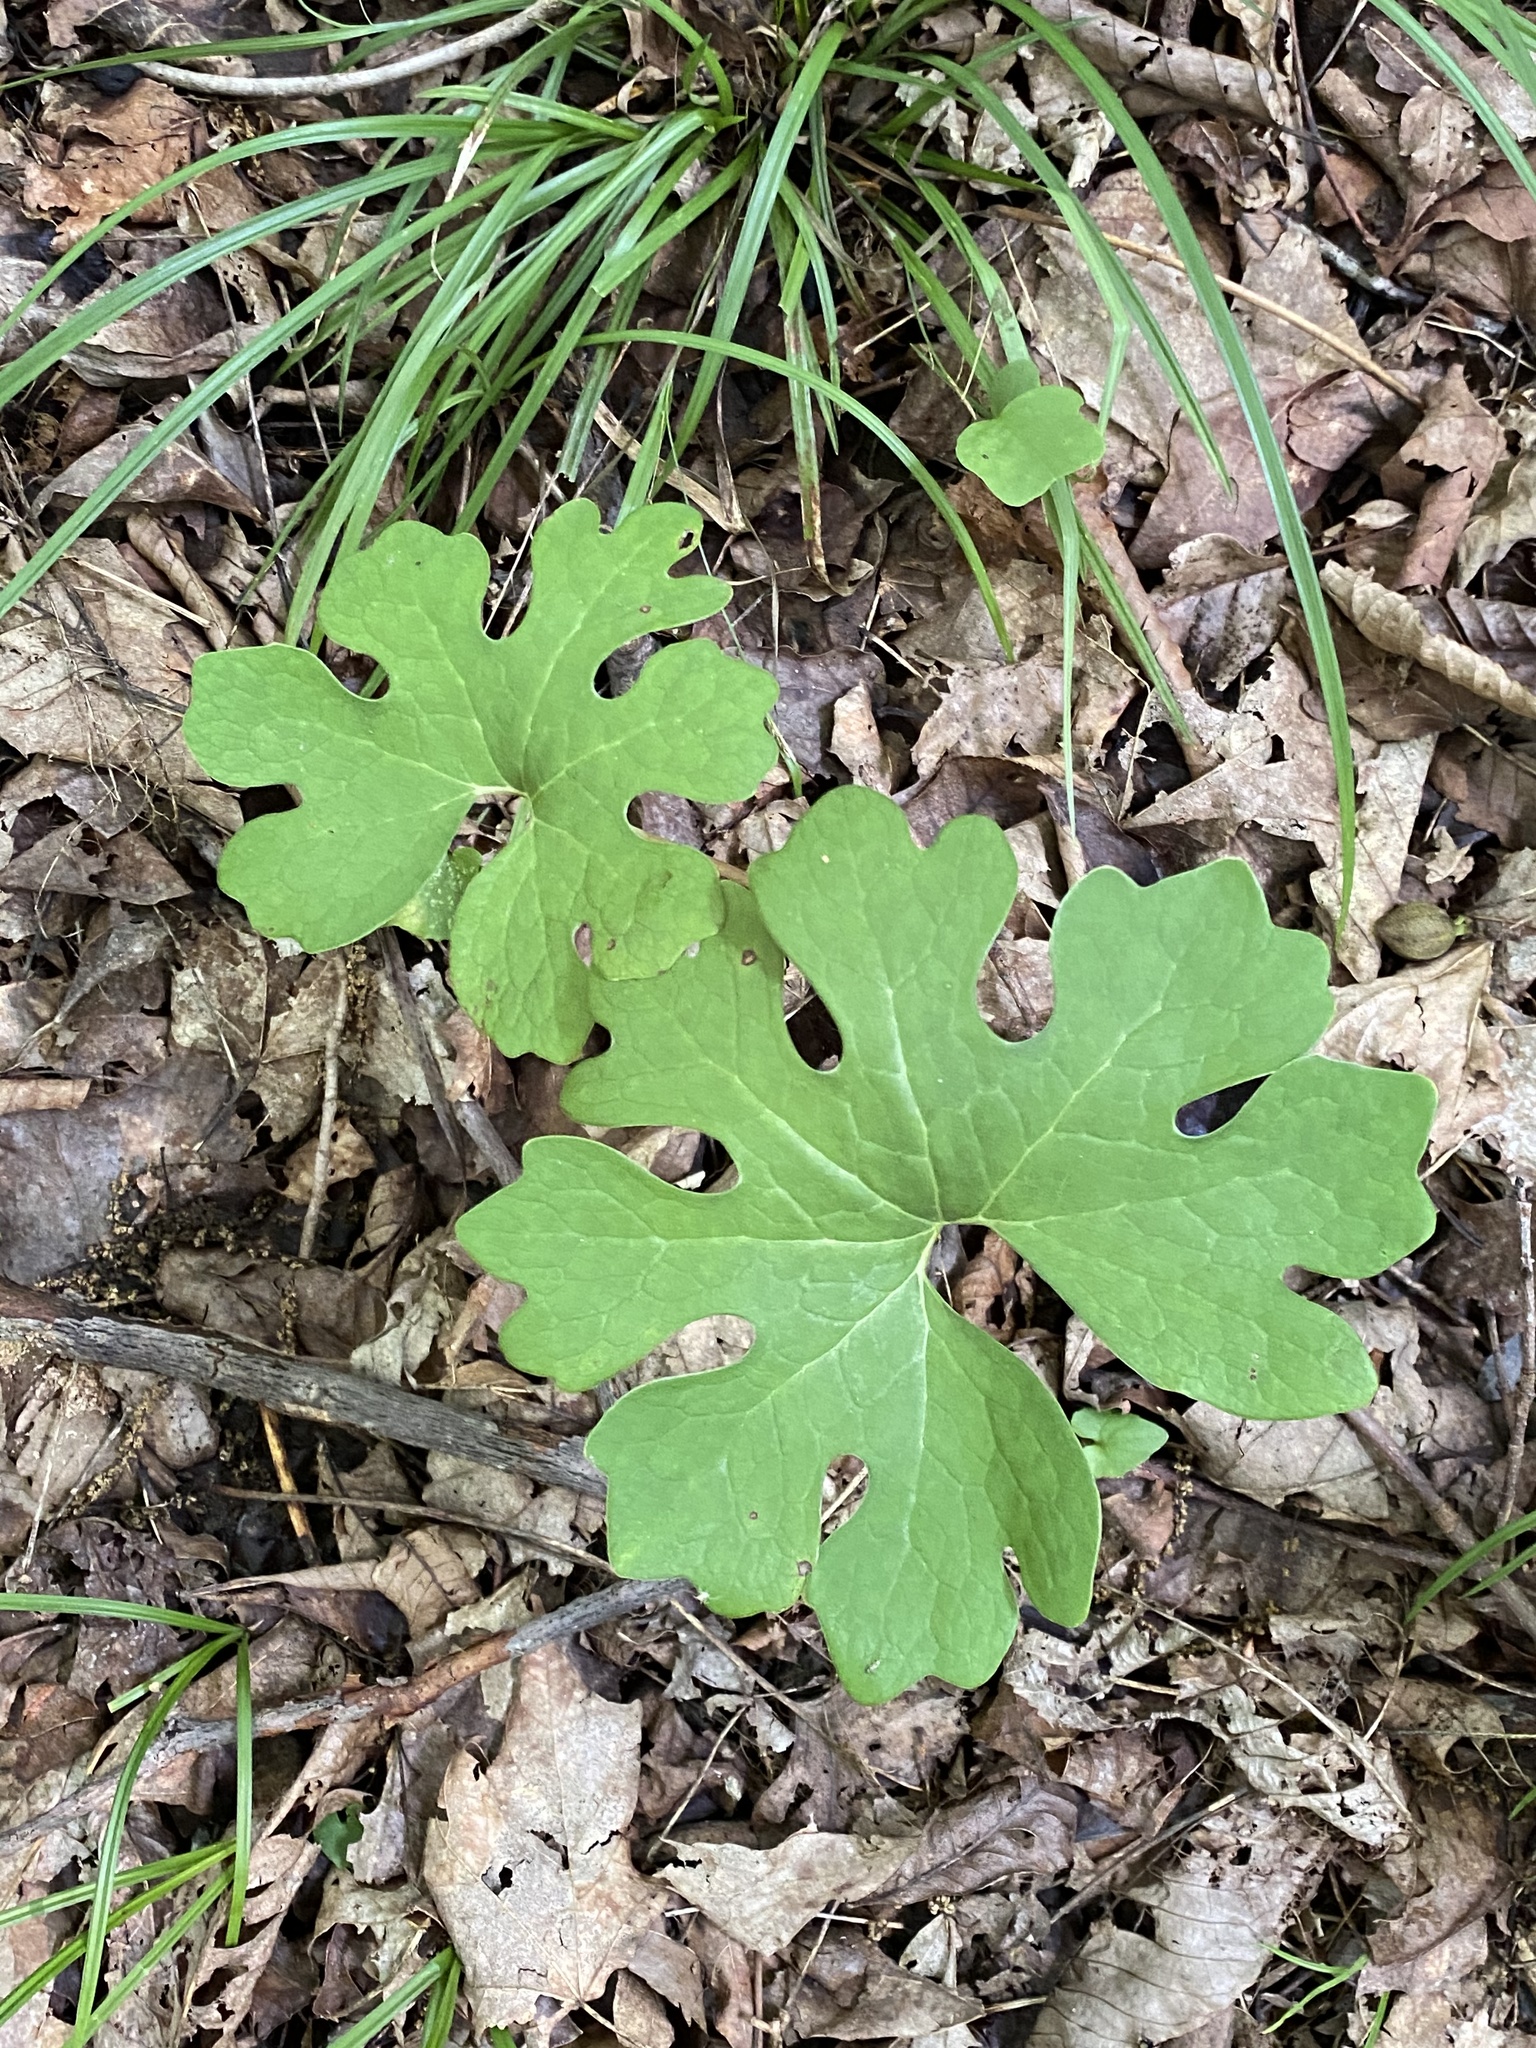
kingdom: Plantae
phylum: Tracheophyta
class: Magnoliopsida
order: Ranunculales
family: Papaveraceae
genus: Sanguinaria
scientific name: Sanguinaria canadensis
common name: Bloodroot
